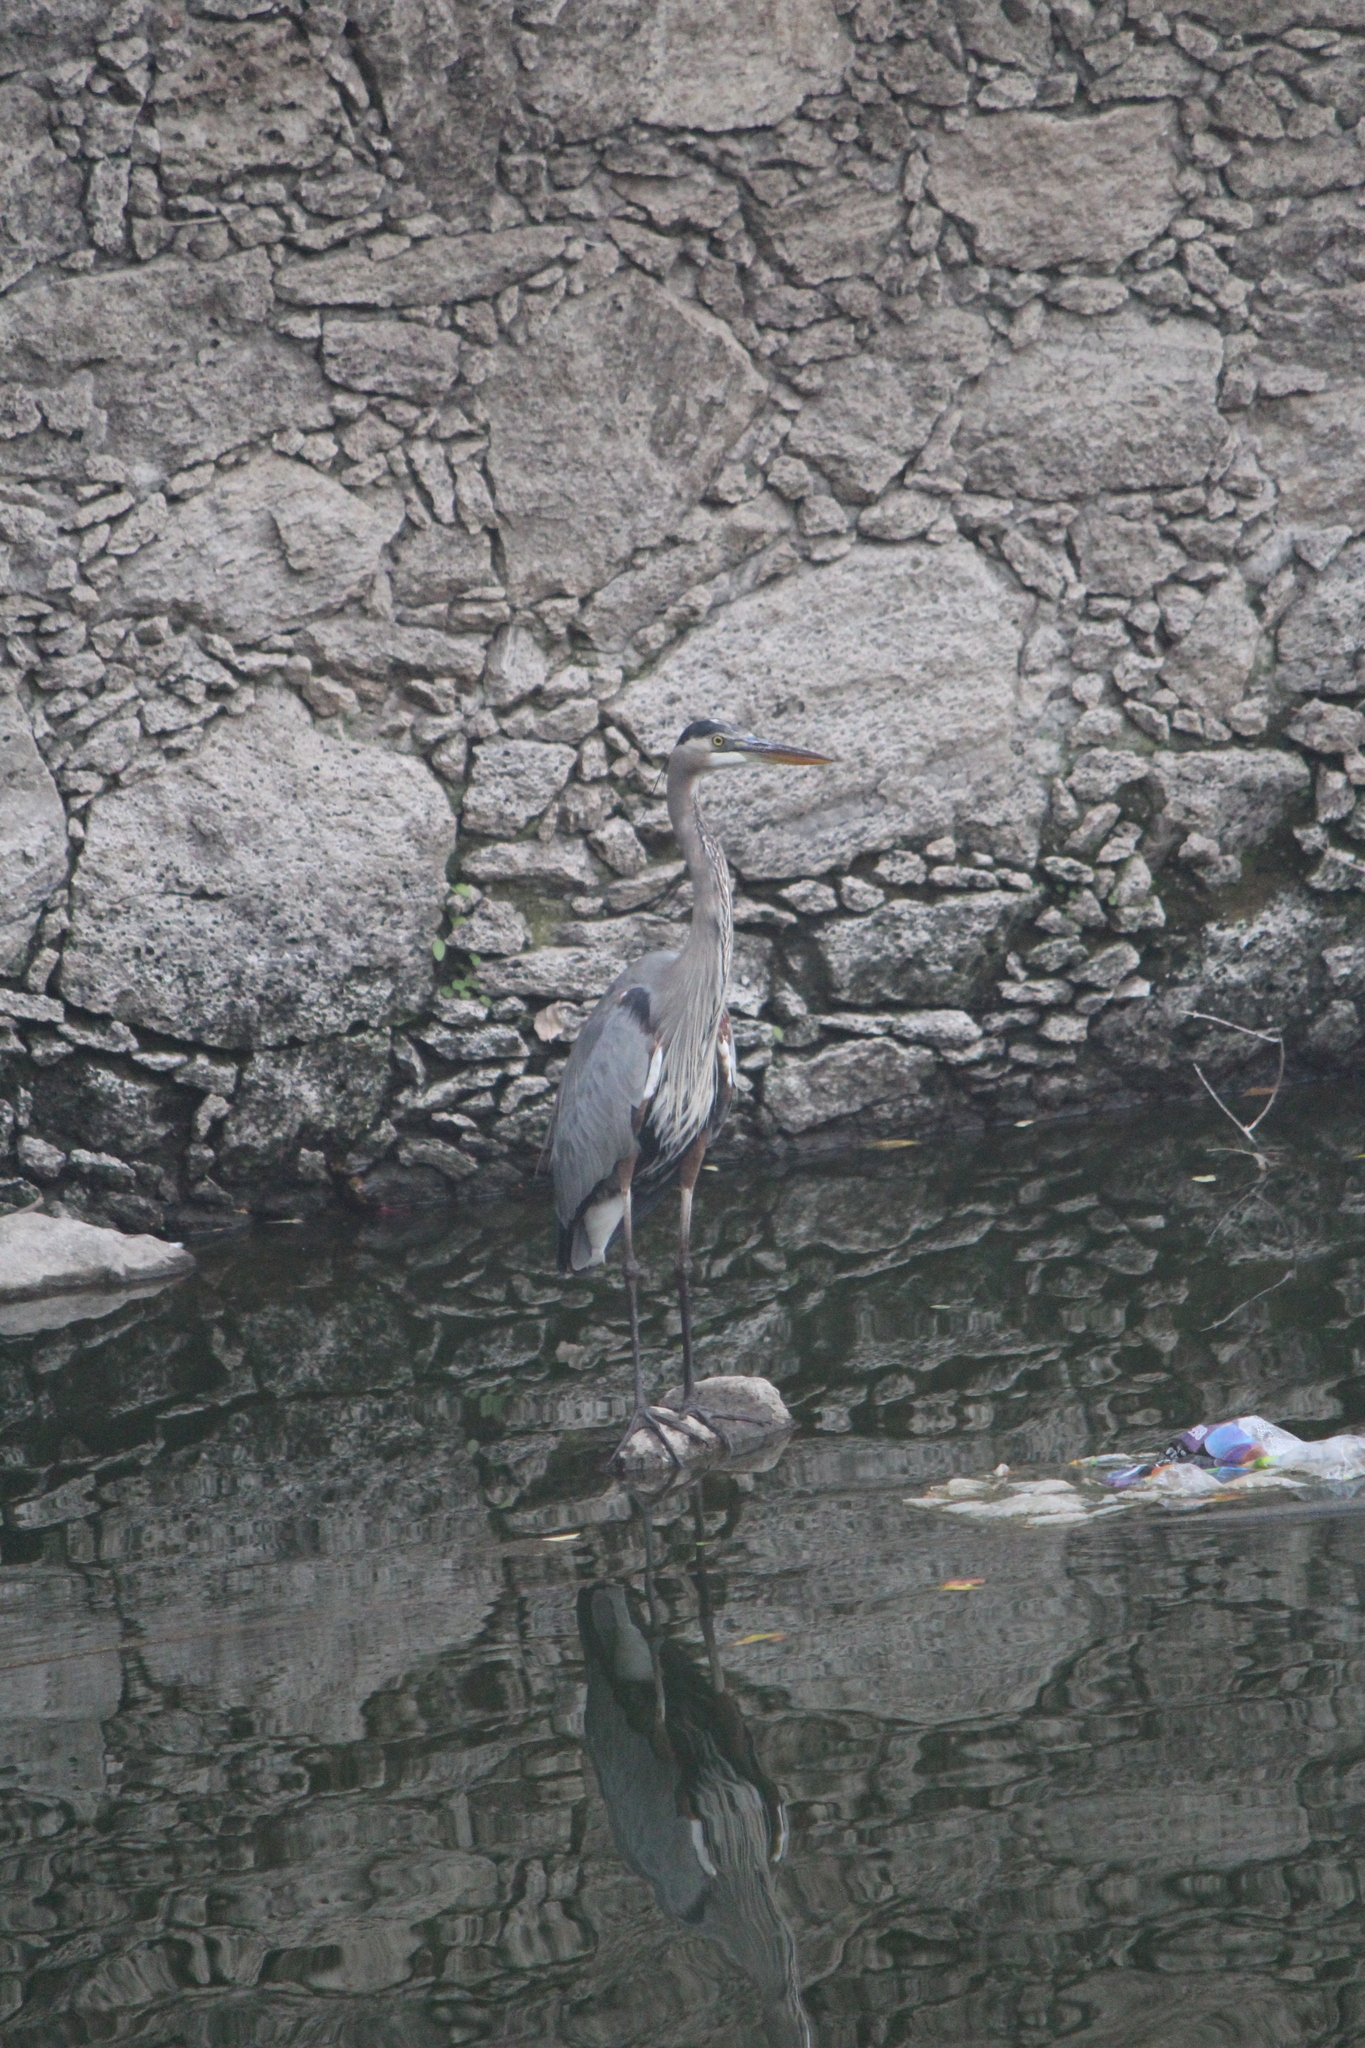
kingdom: Animalia
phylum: Chordata
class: Aves
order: Pelecaniformes
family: Ardeidae
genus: Ardea
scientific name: Ardea herodias
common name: Great blue heron
